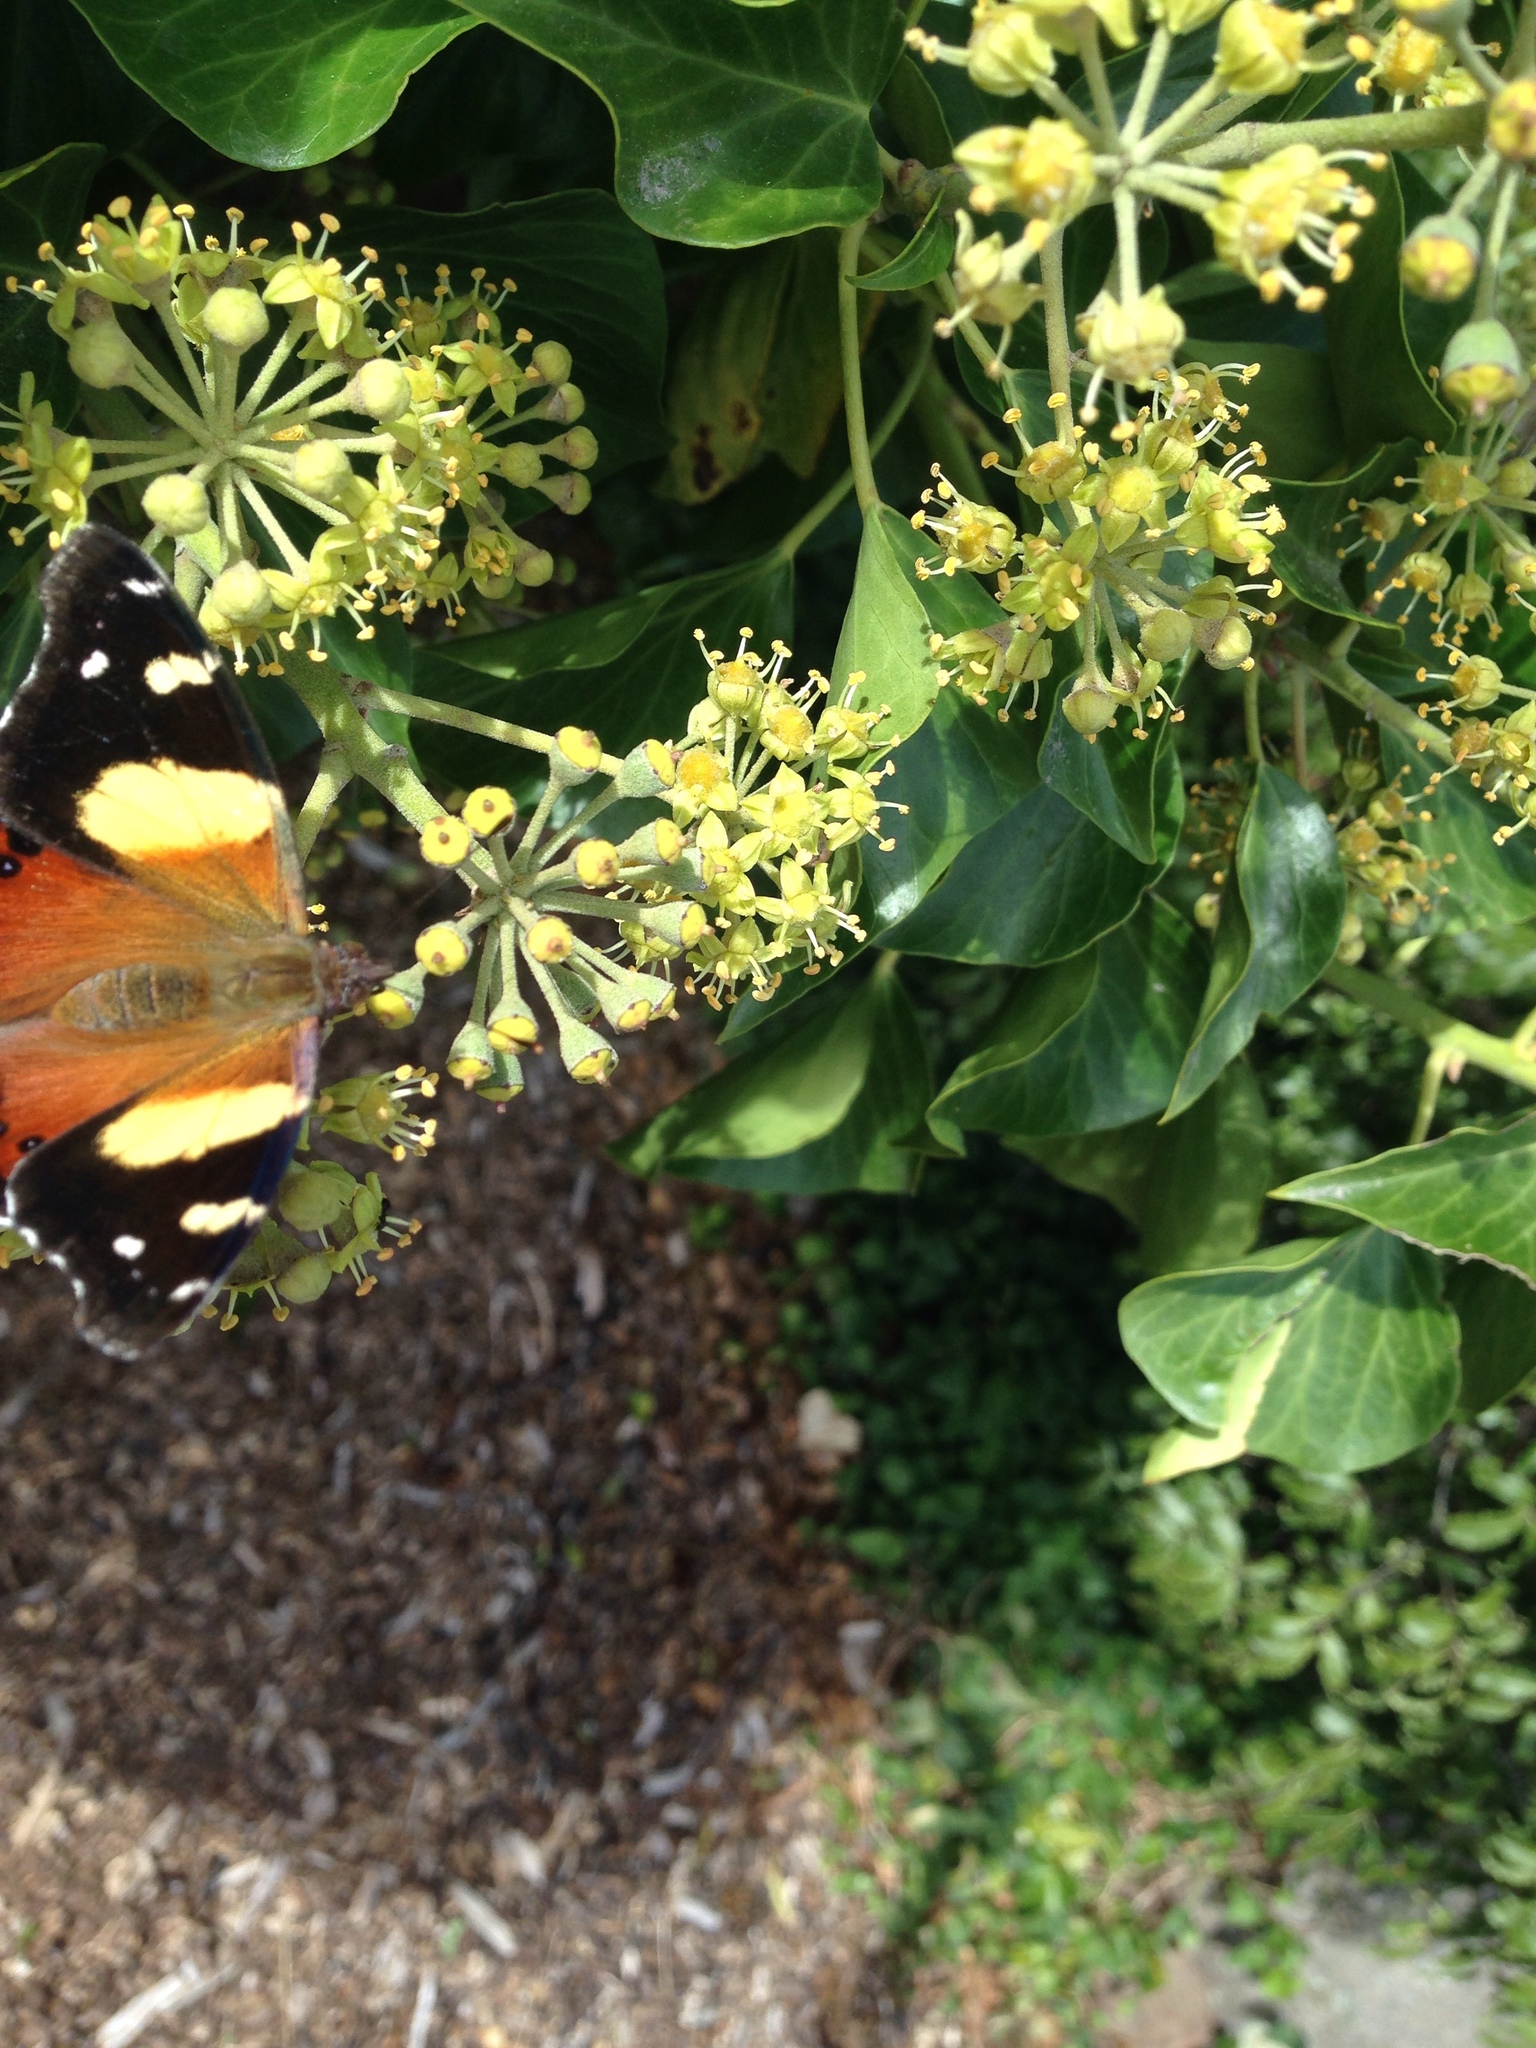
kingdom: Animalia
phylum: Arthropoda
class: Insecta
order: Lepidoptera
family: Nymphalidae
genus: Vanessa
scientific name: Vanessa itea
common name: Yellow admiral
